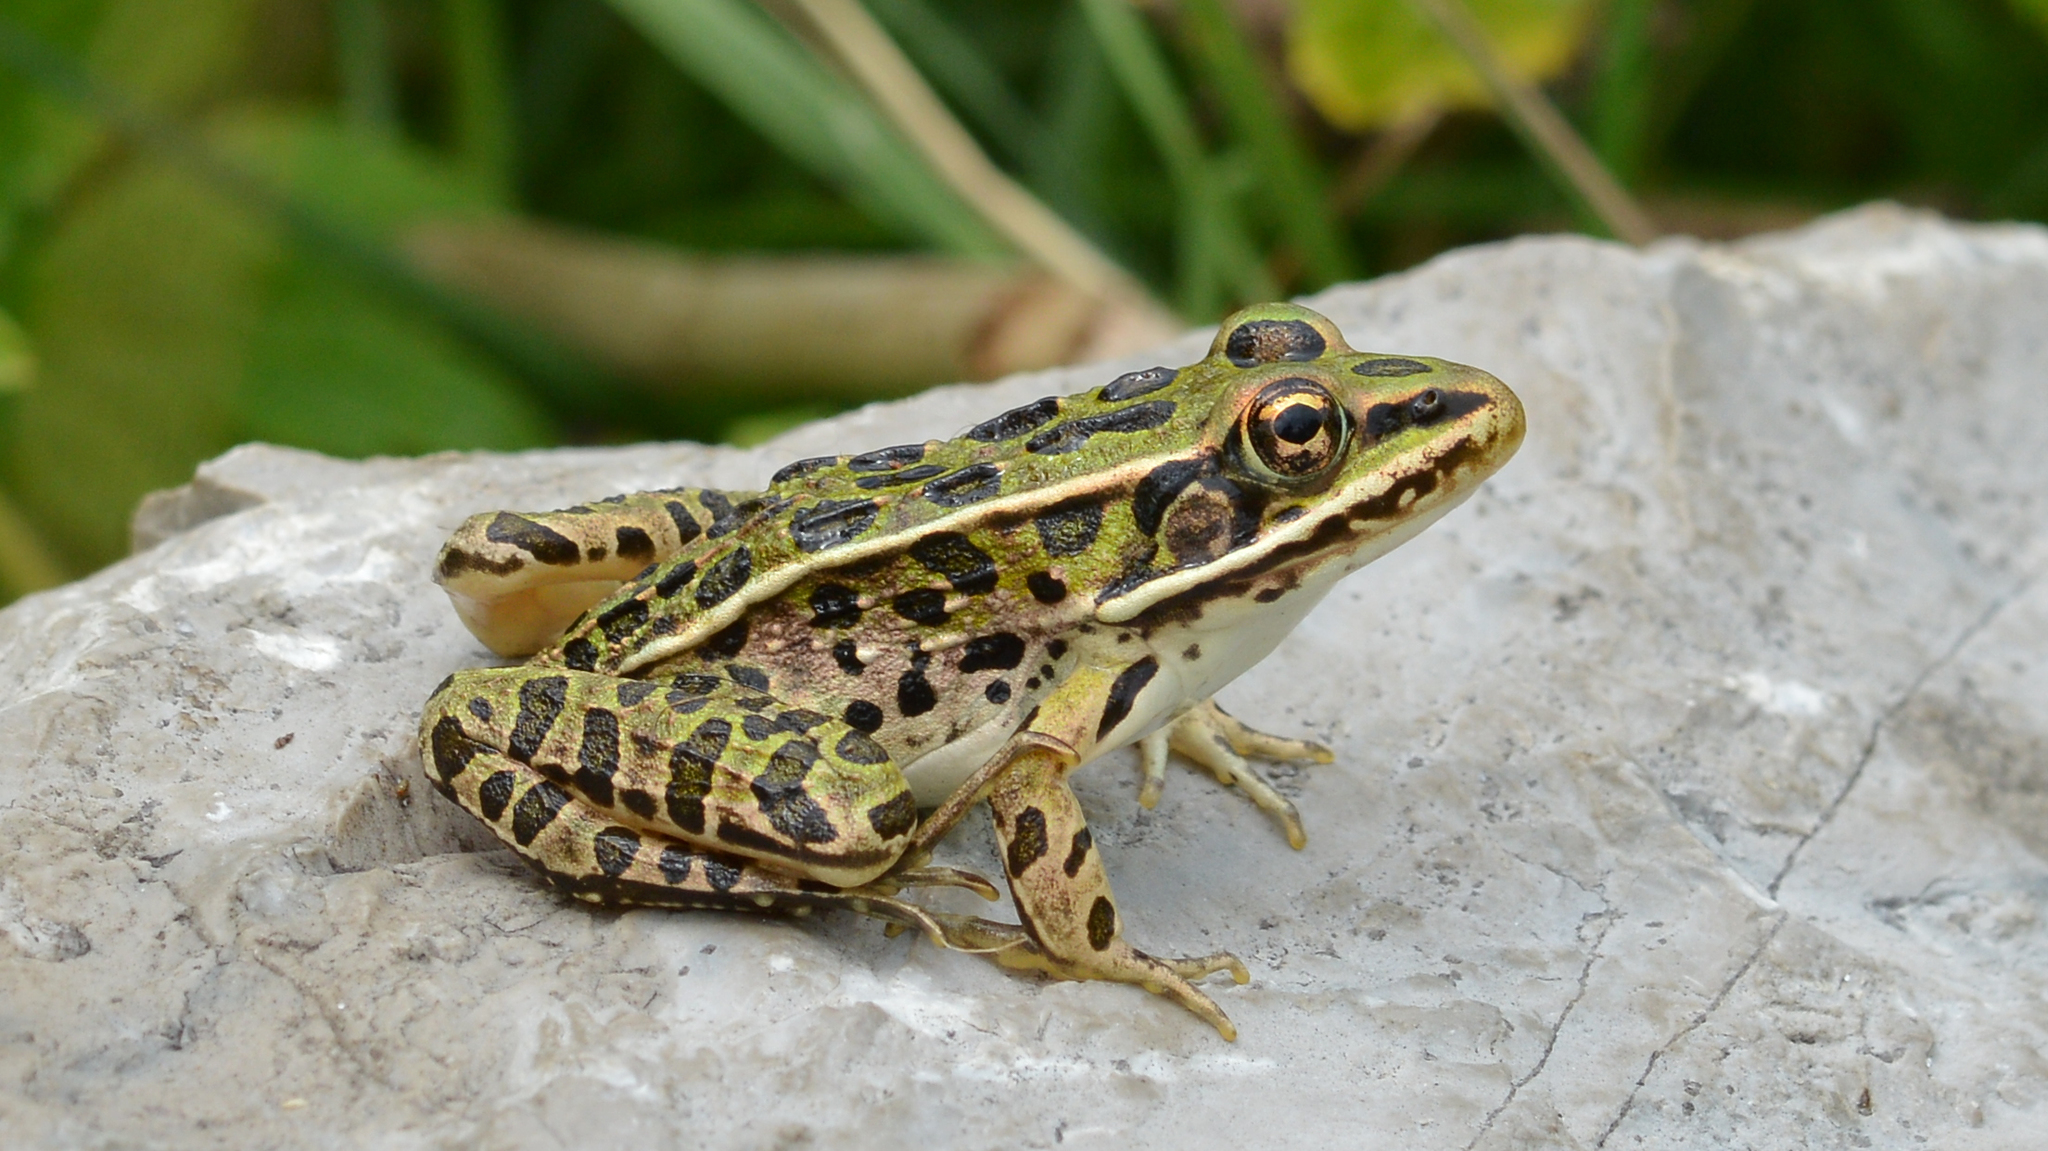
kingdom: Animalia
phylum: Chordata
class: Amphibia
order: Anura
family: Ranidae
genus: Lithobates
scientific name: Lithobates pipiens
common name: Northern leopard frog
